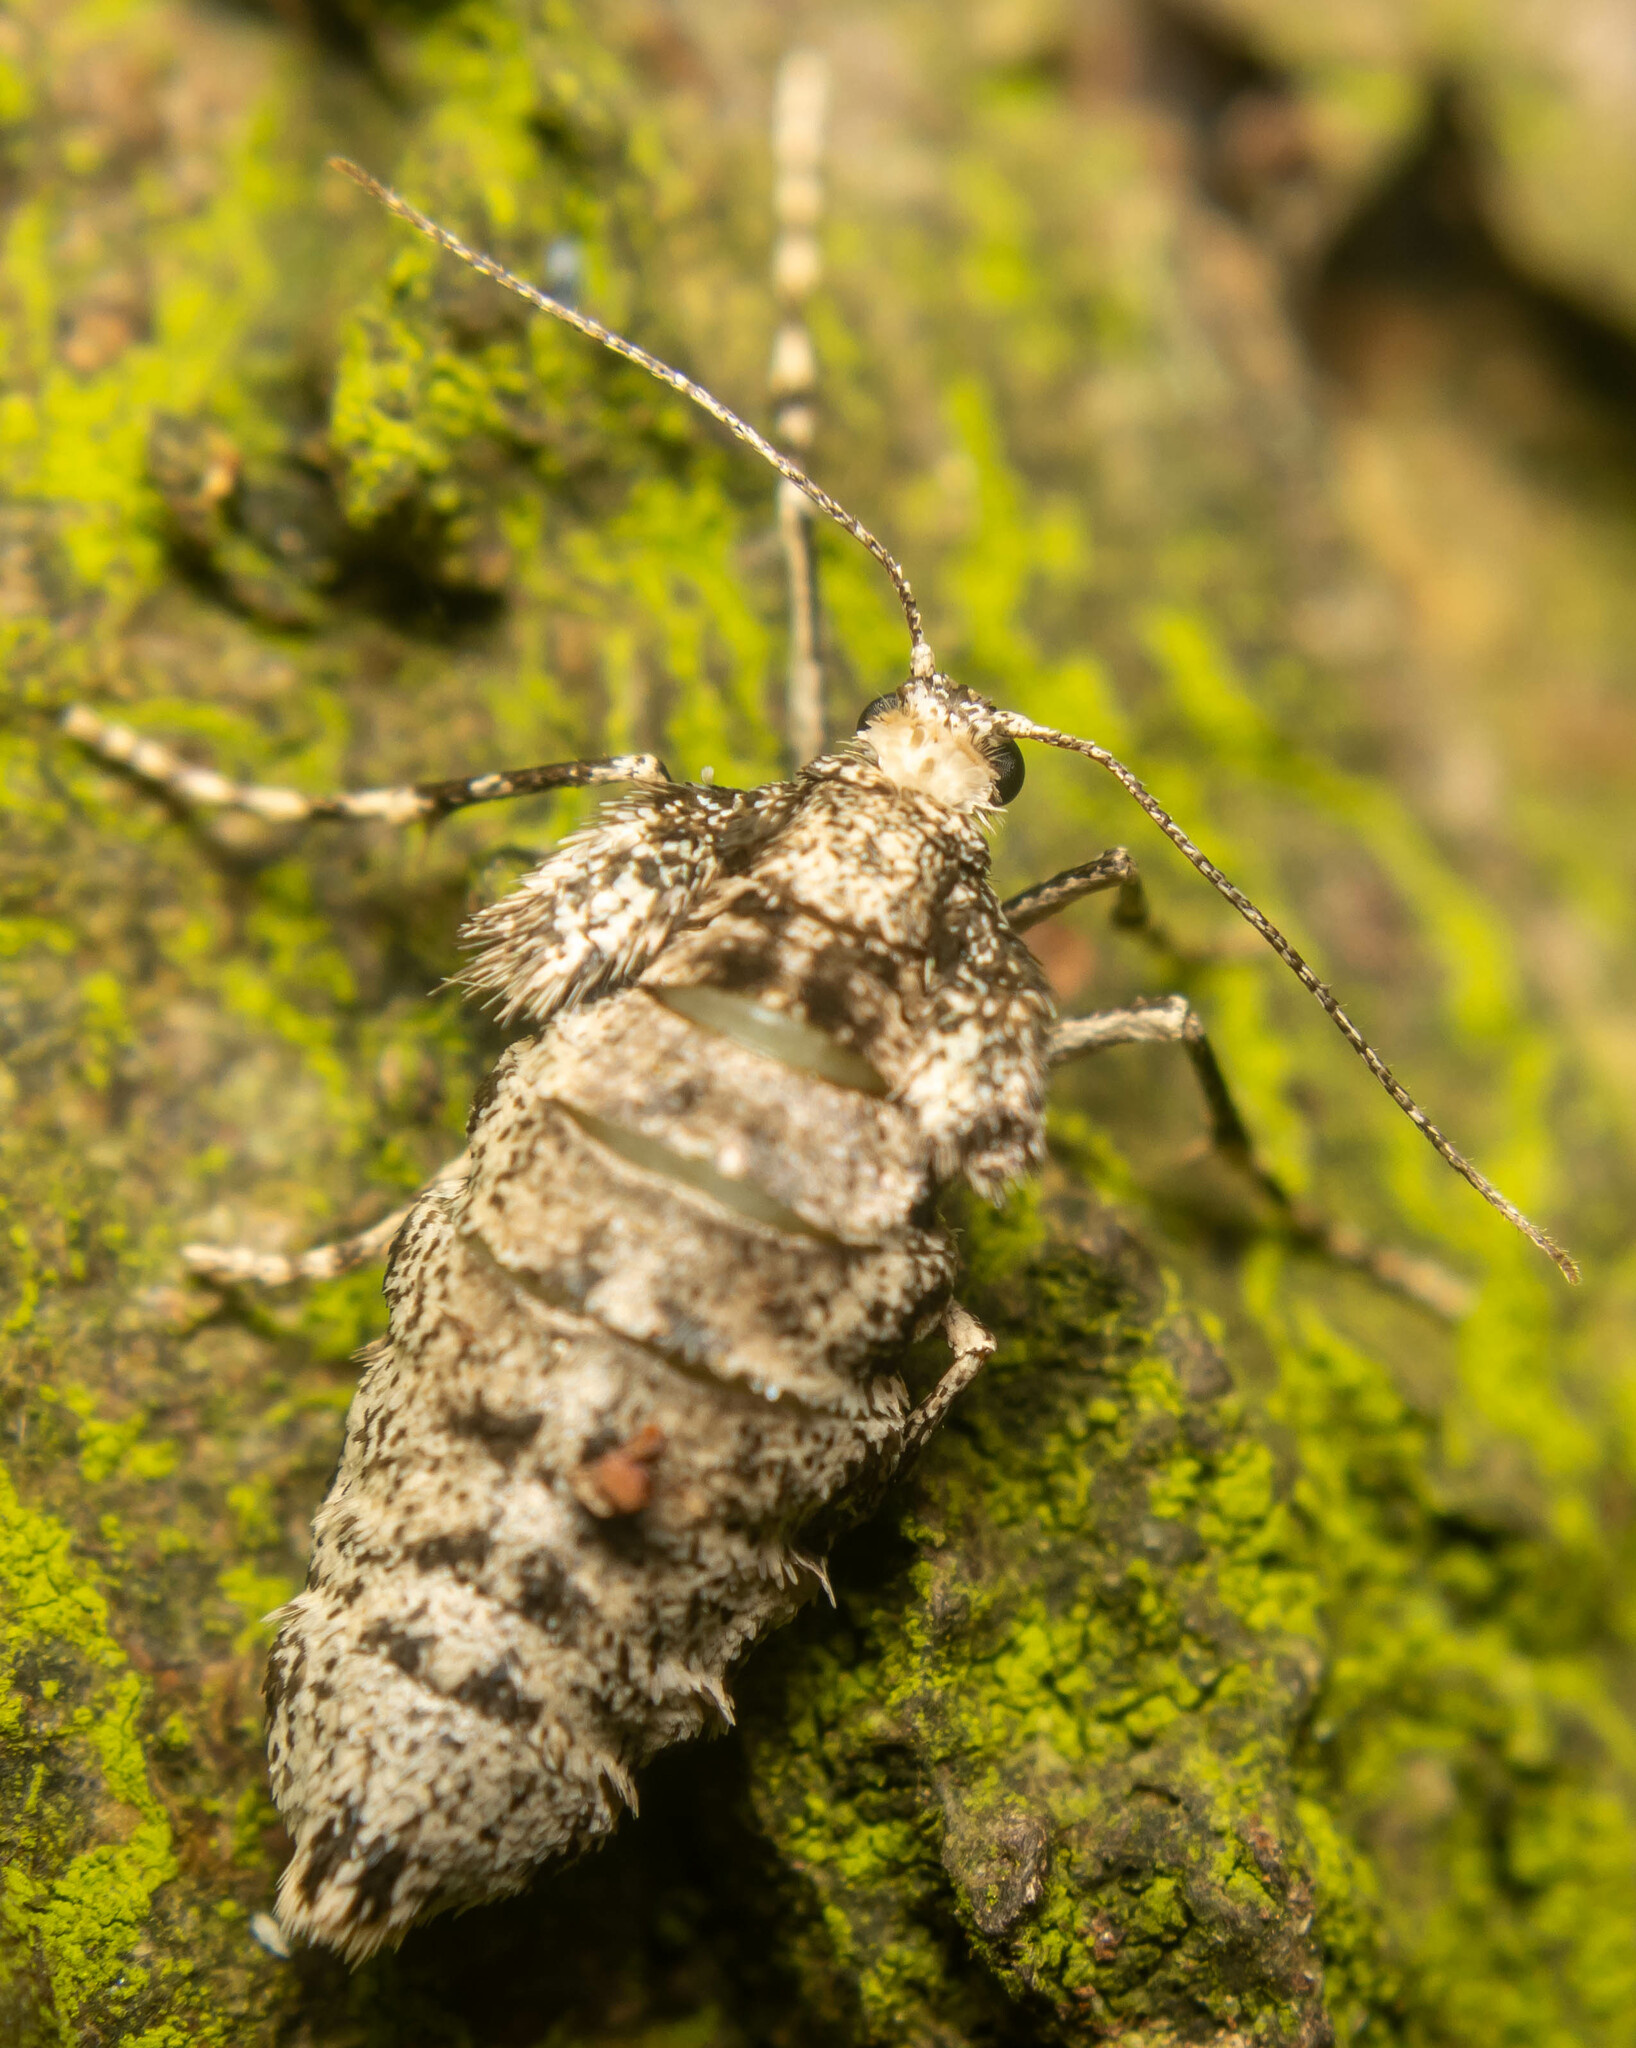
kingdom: Animalia
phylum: Arthropoda
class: Insecta
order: Lepidoptera
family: Geometridae
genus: Operophtera
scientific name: Operophtera brumata
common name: Winter moth
